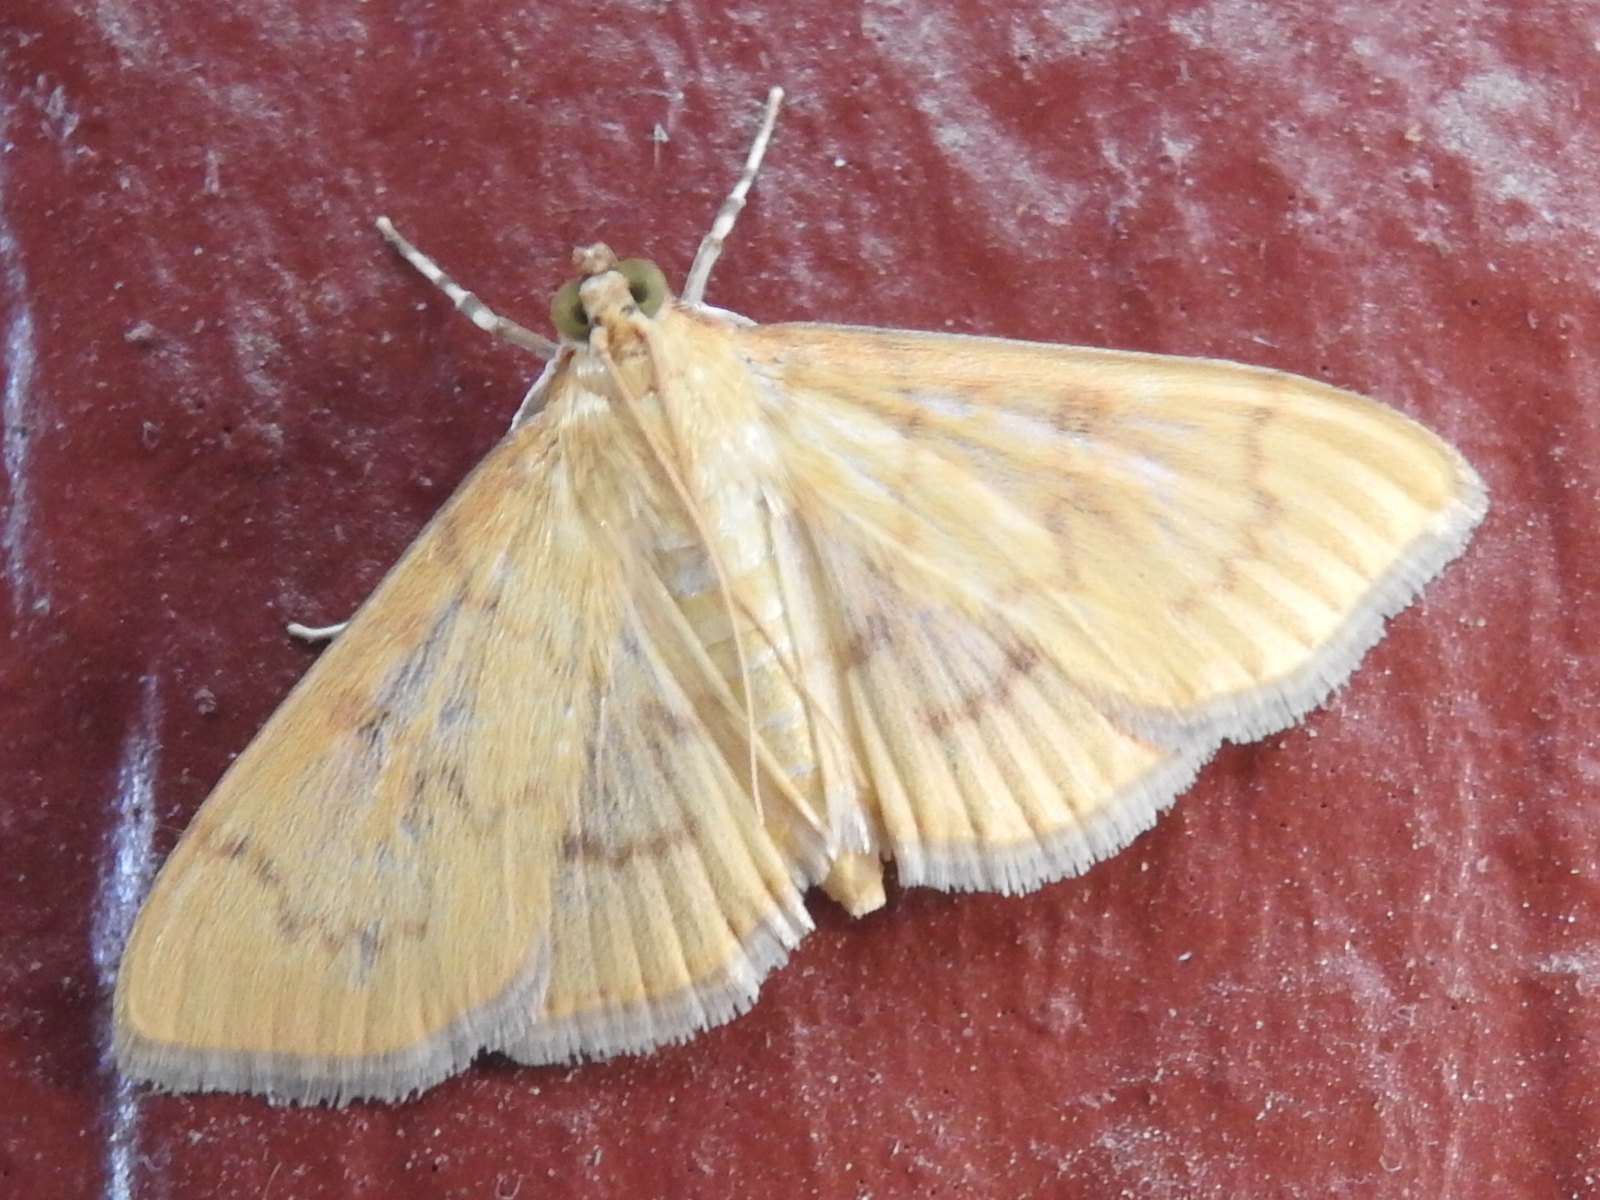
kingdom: Animalia
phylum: Arthropoda
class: Insecta
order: Lepidoptera
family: Crambidae
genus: Pilocrocis
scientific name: Pilocrocis dryalis
